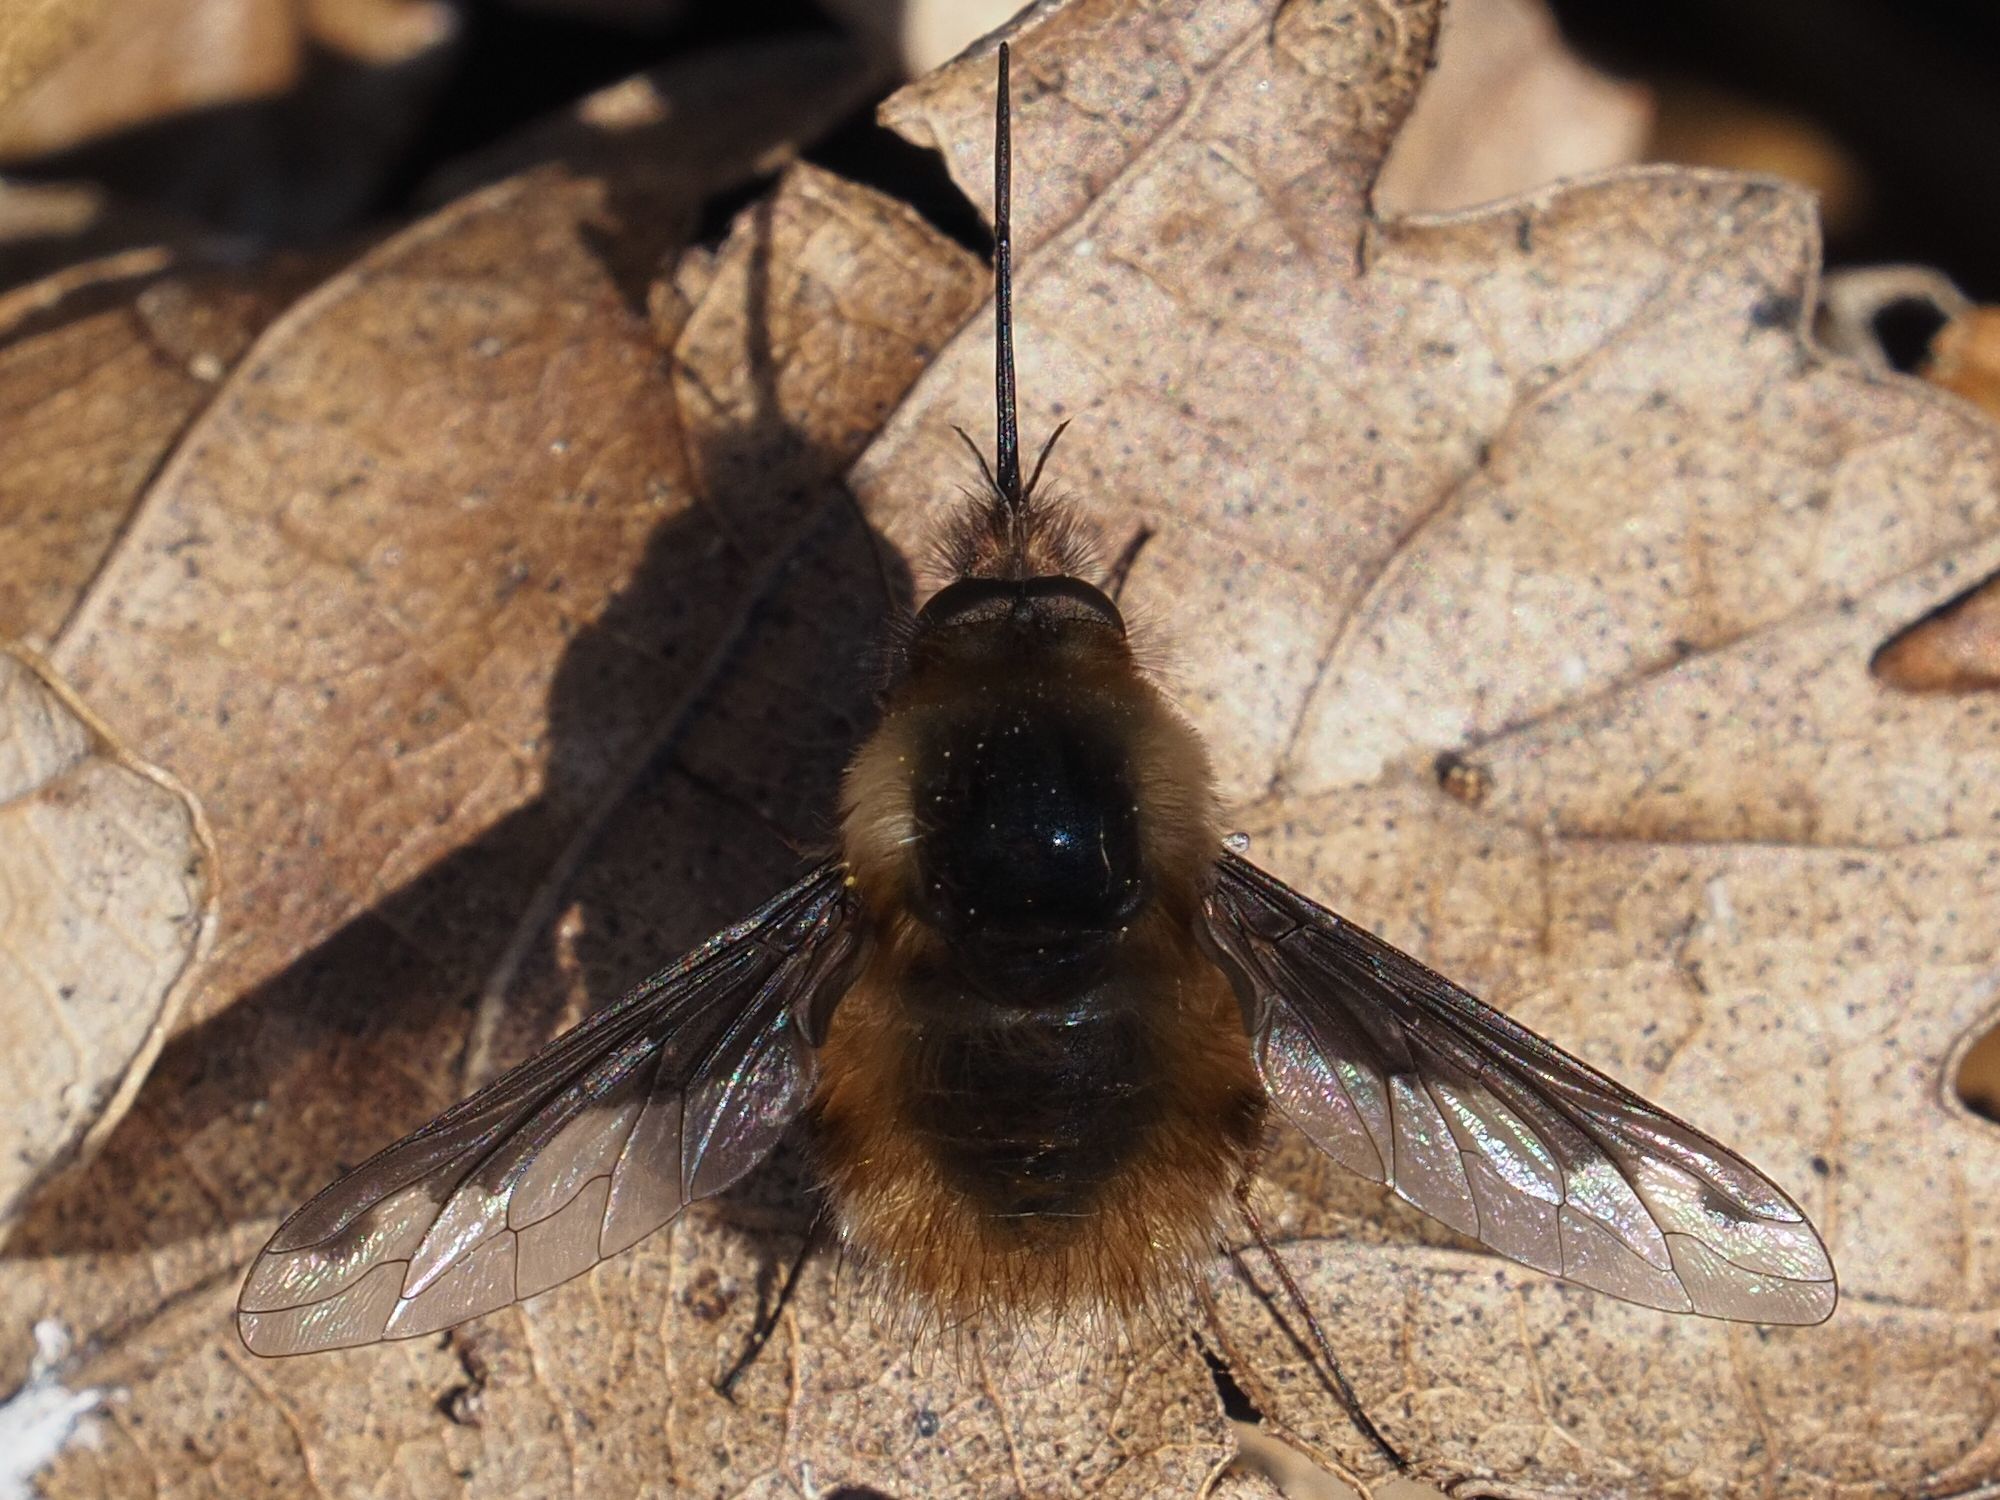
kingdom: Animalia
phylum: Arthropoda
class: Insecta
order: Diptera
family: Bombyliidae
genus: Bombylius
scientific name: Bombylius major
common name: Bee fly
